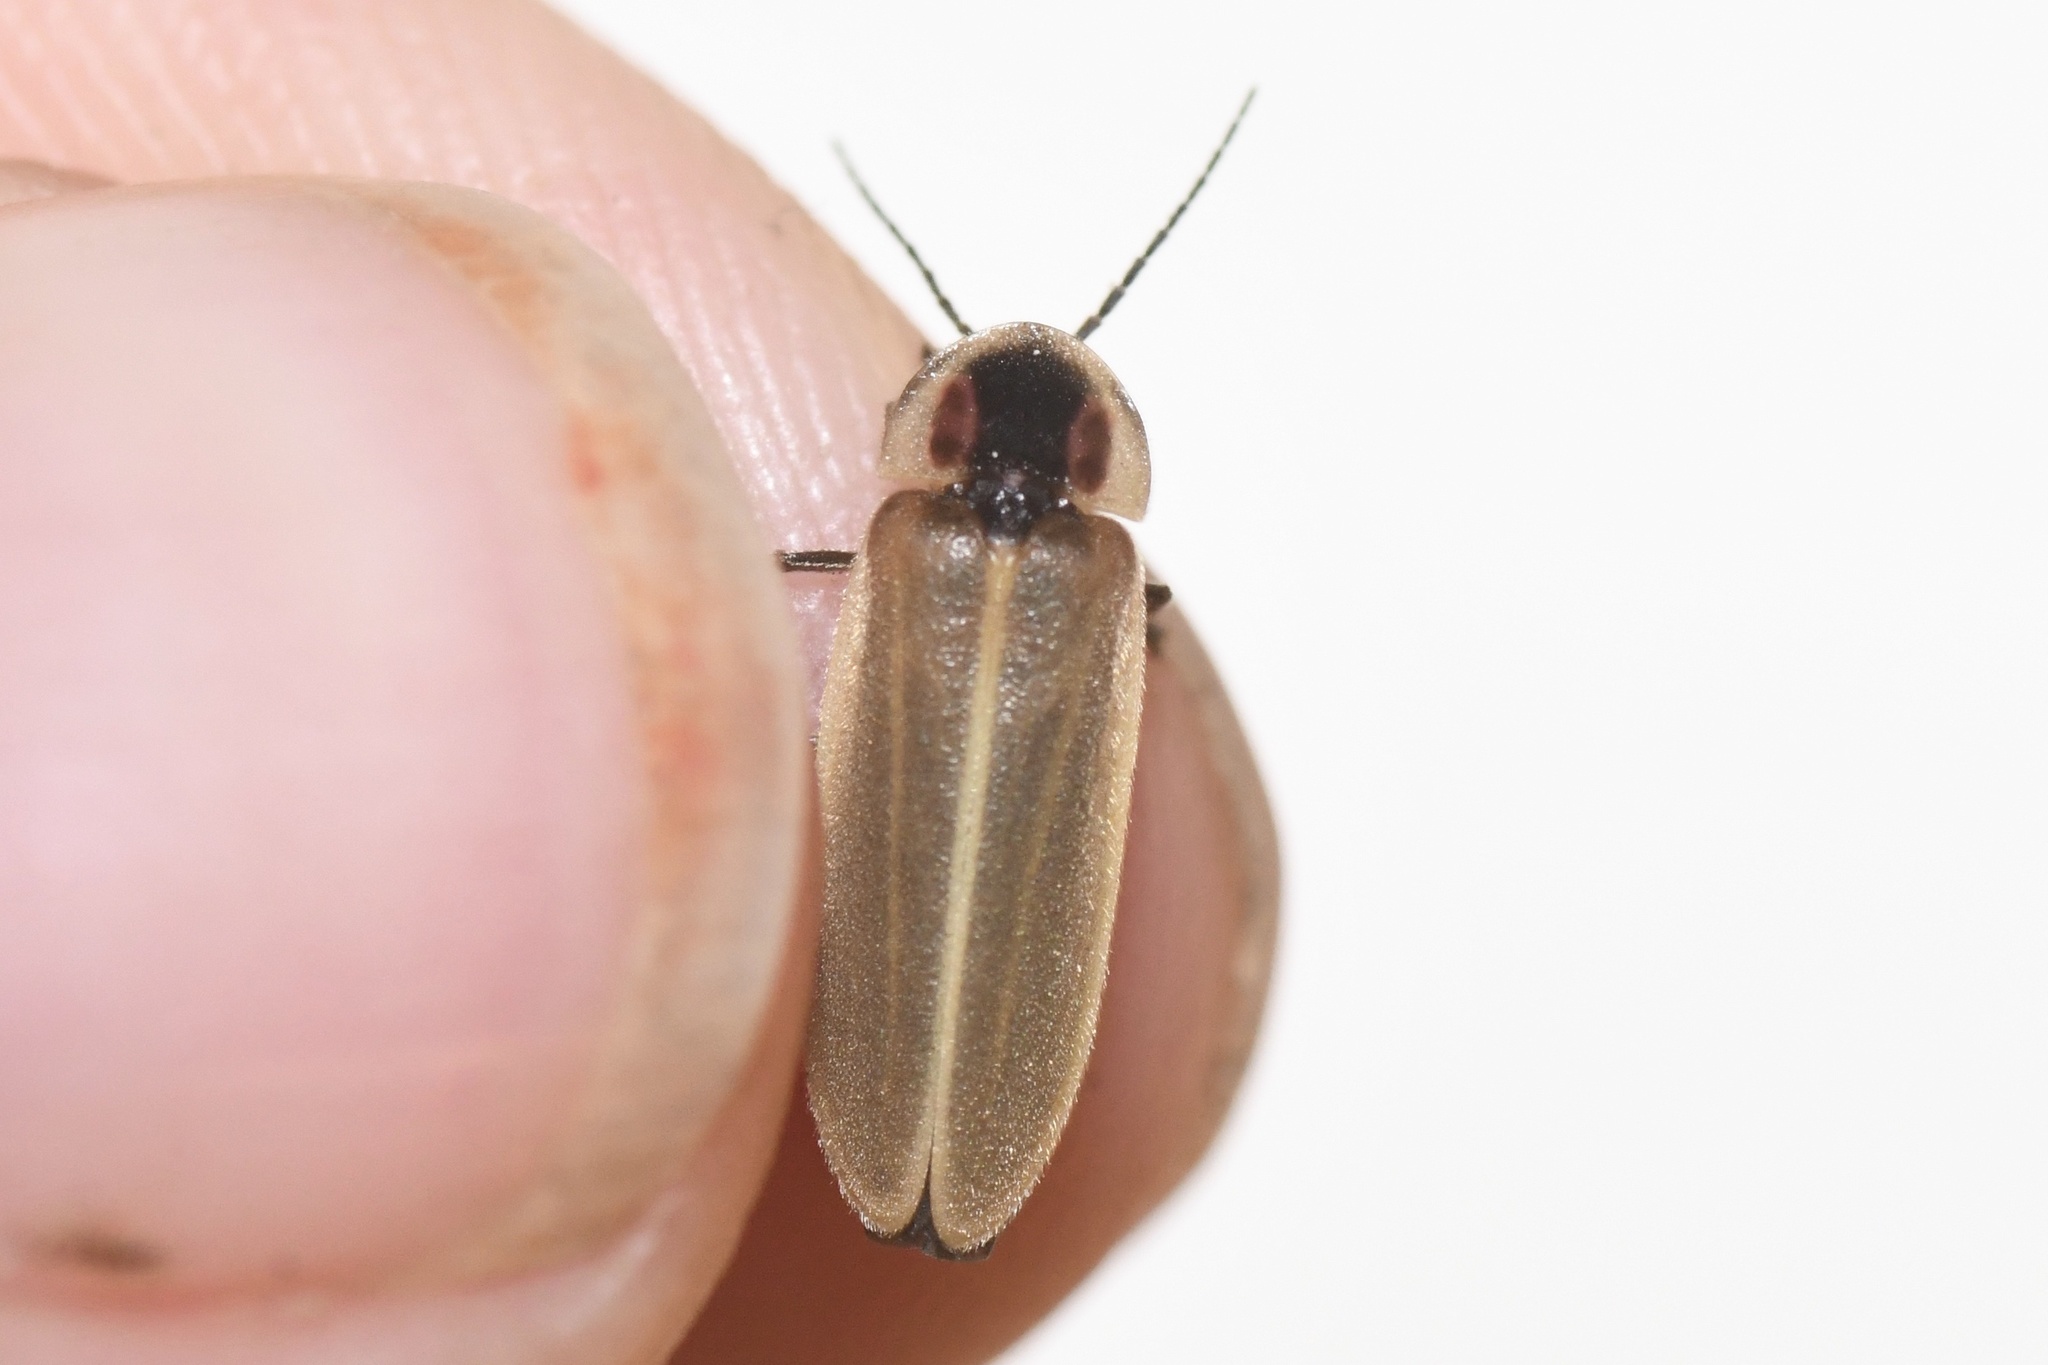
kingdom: Animalia
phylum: Arthropoda
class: Insecta
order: Coleoptera
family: Lampyridae
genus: Photuris
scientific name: Photuris
